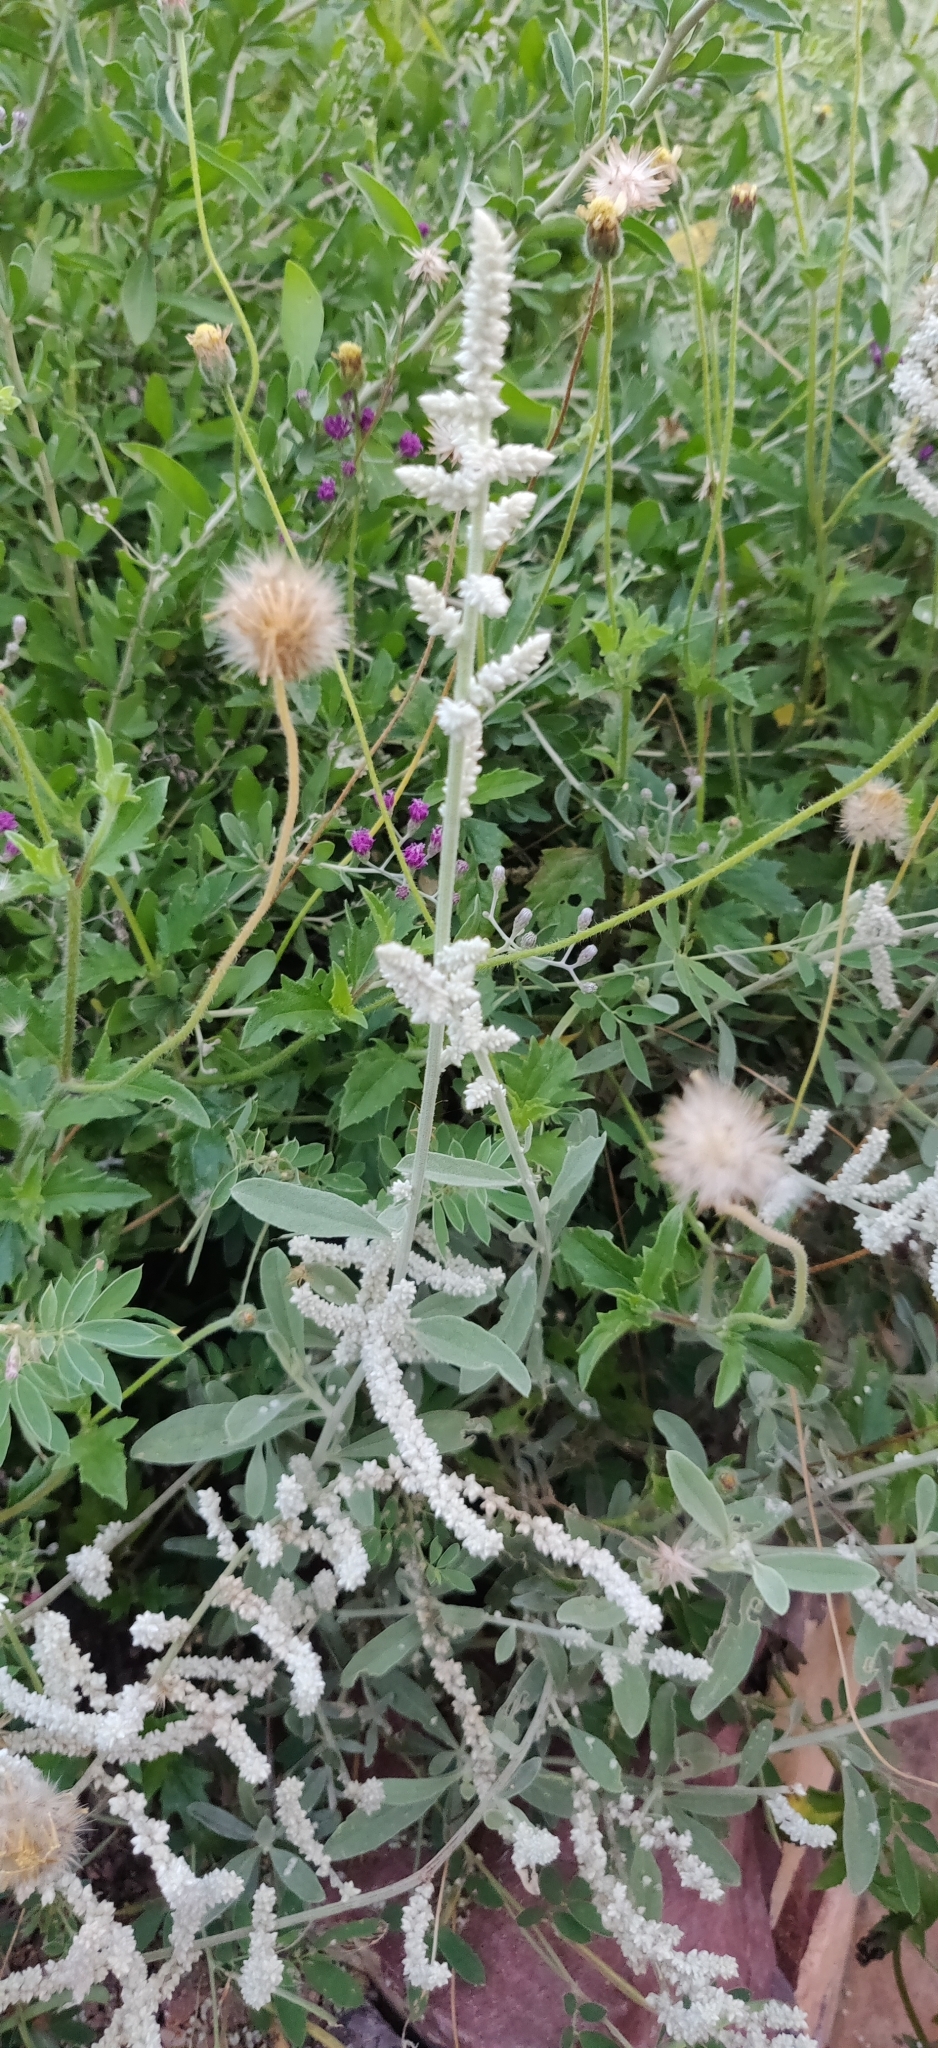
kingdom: Plantae
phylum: Tracheophyta
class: Magnoliopsida
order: Caryophyllales
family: Amaranthaceae
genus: Aerva
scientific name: Aerva javanica
